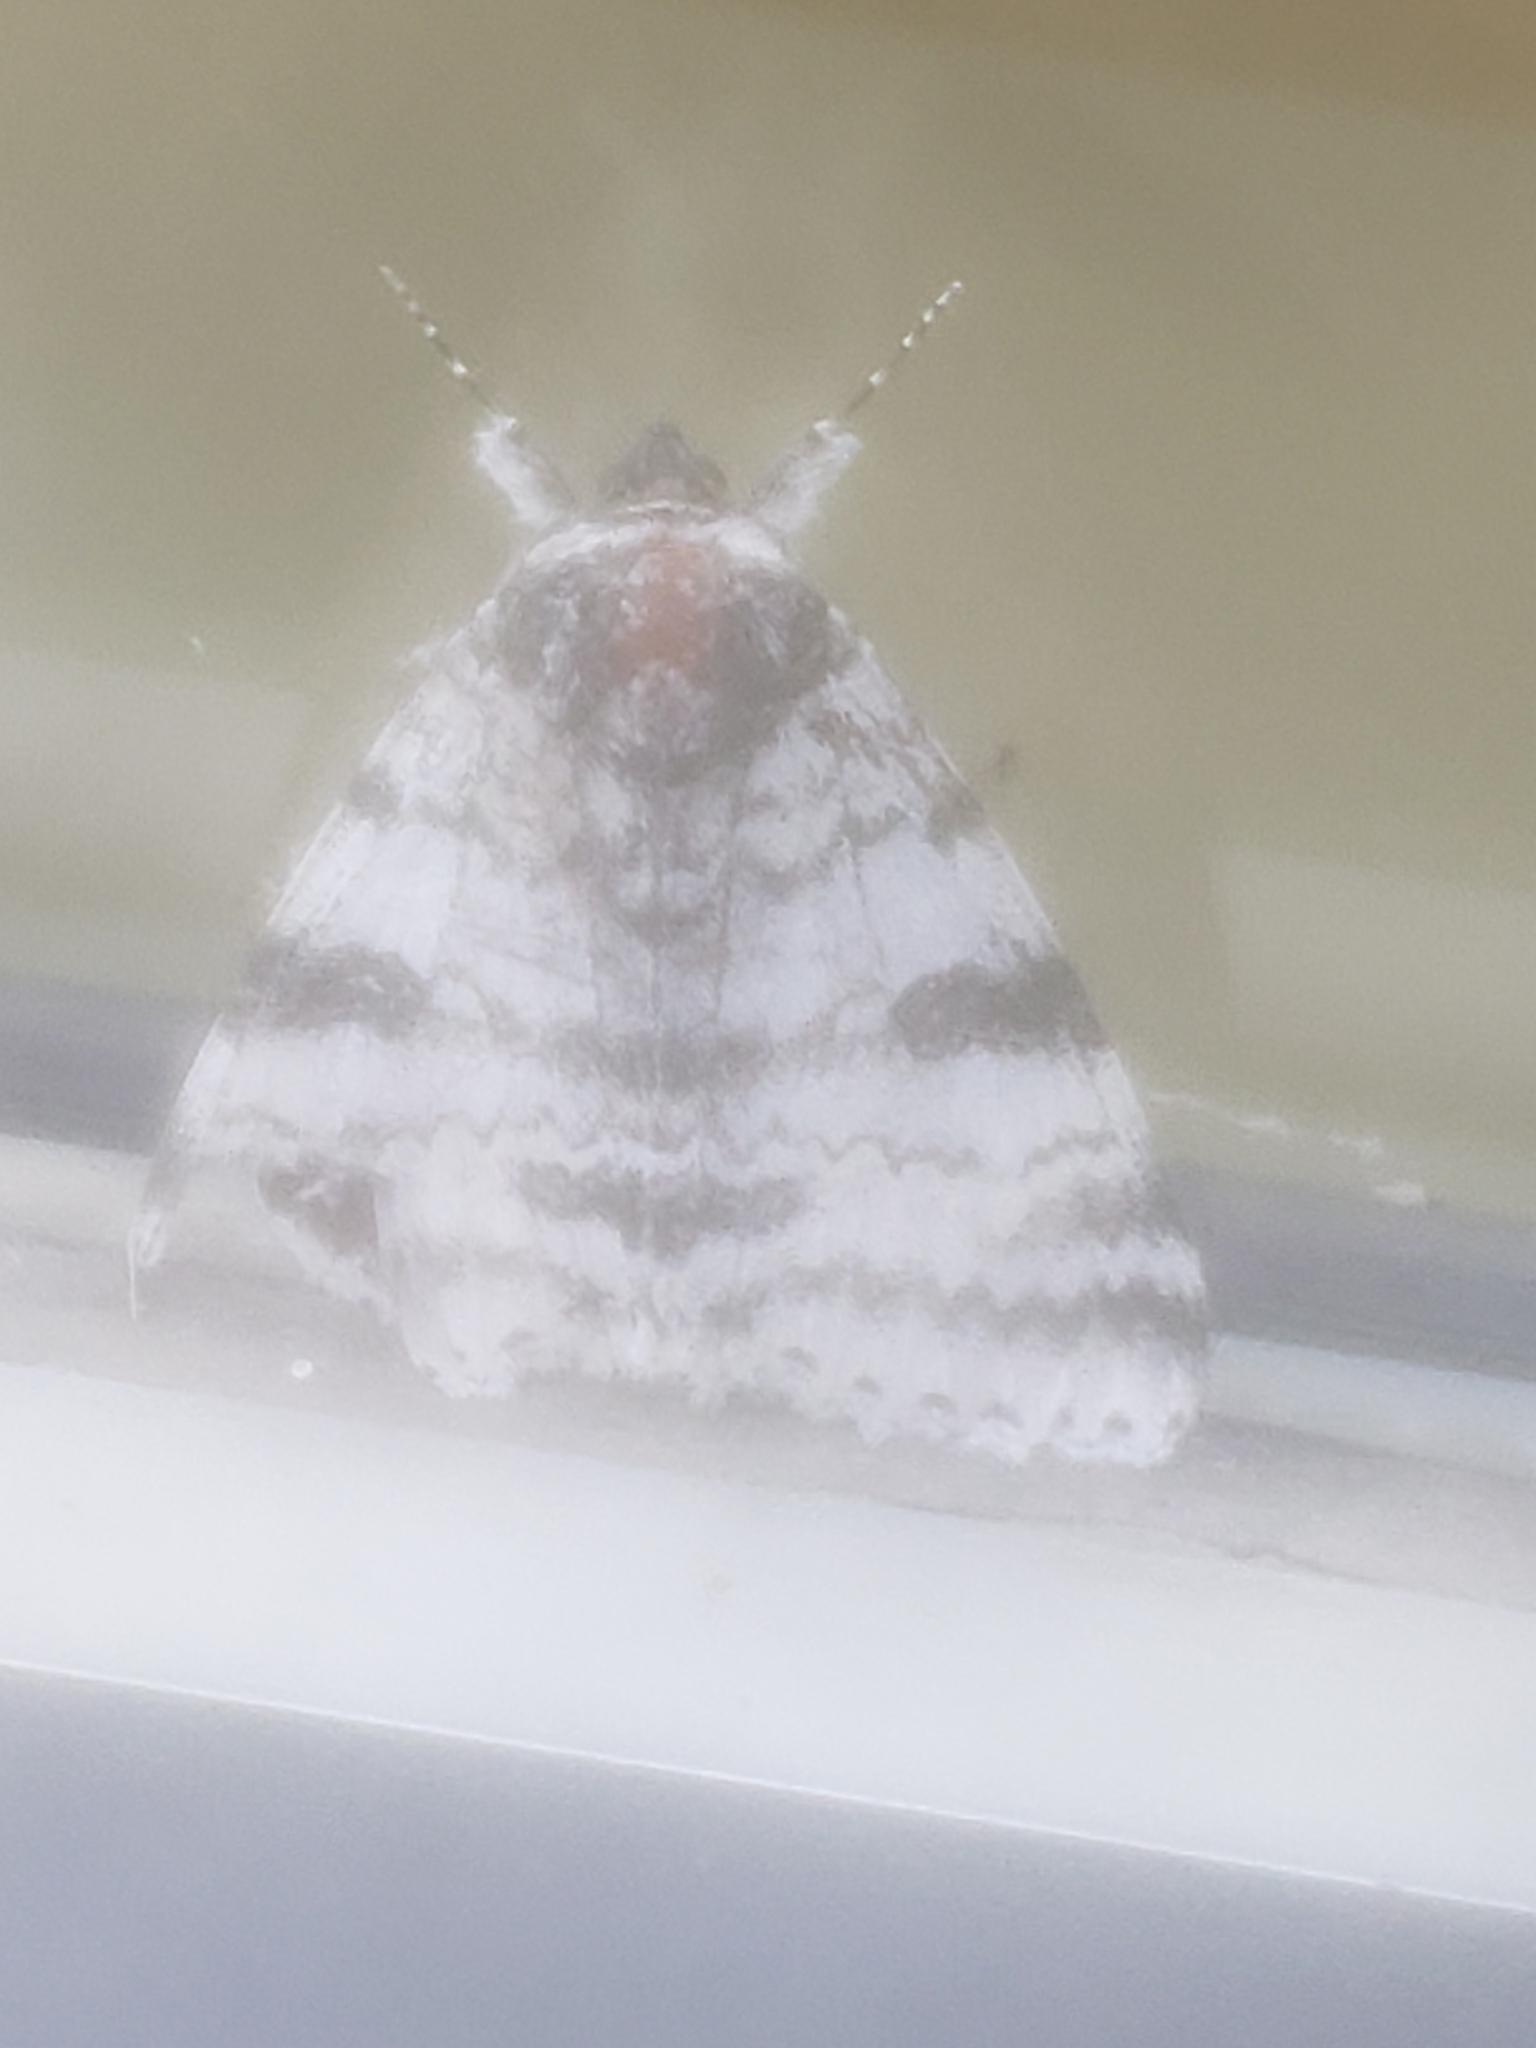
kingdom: Animalia
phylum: Arthropoda
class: Insecta
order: Lepidoptera
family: Erebidae
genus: Catocala
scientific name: Catocala relicta
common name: White underwing
